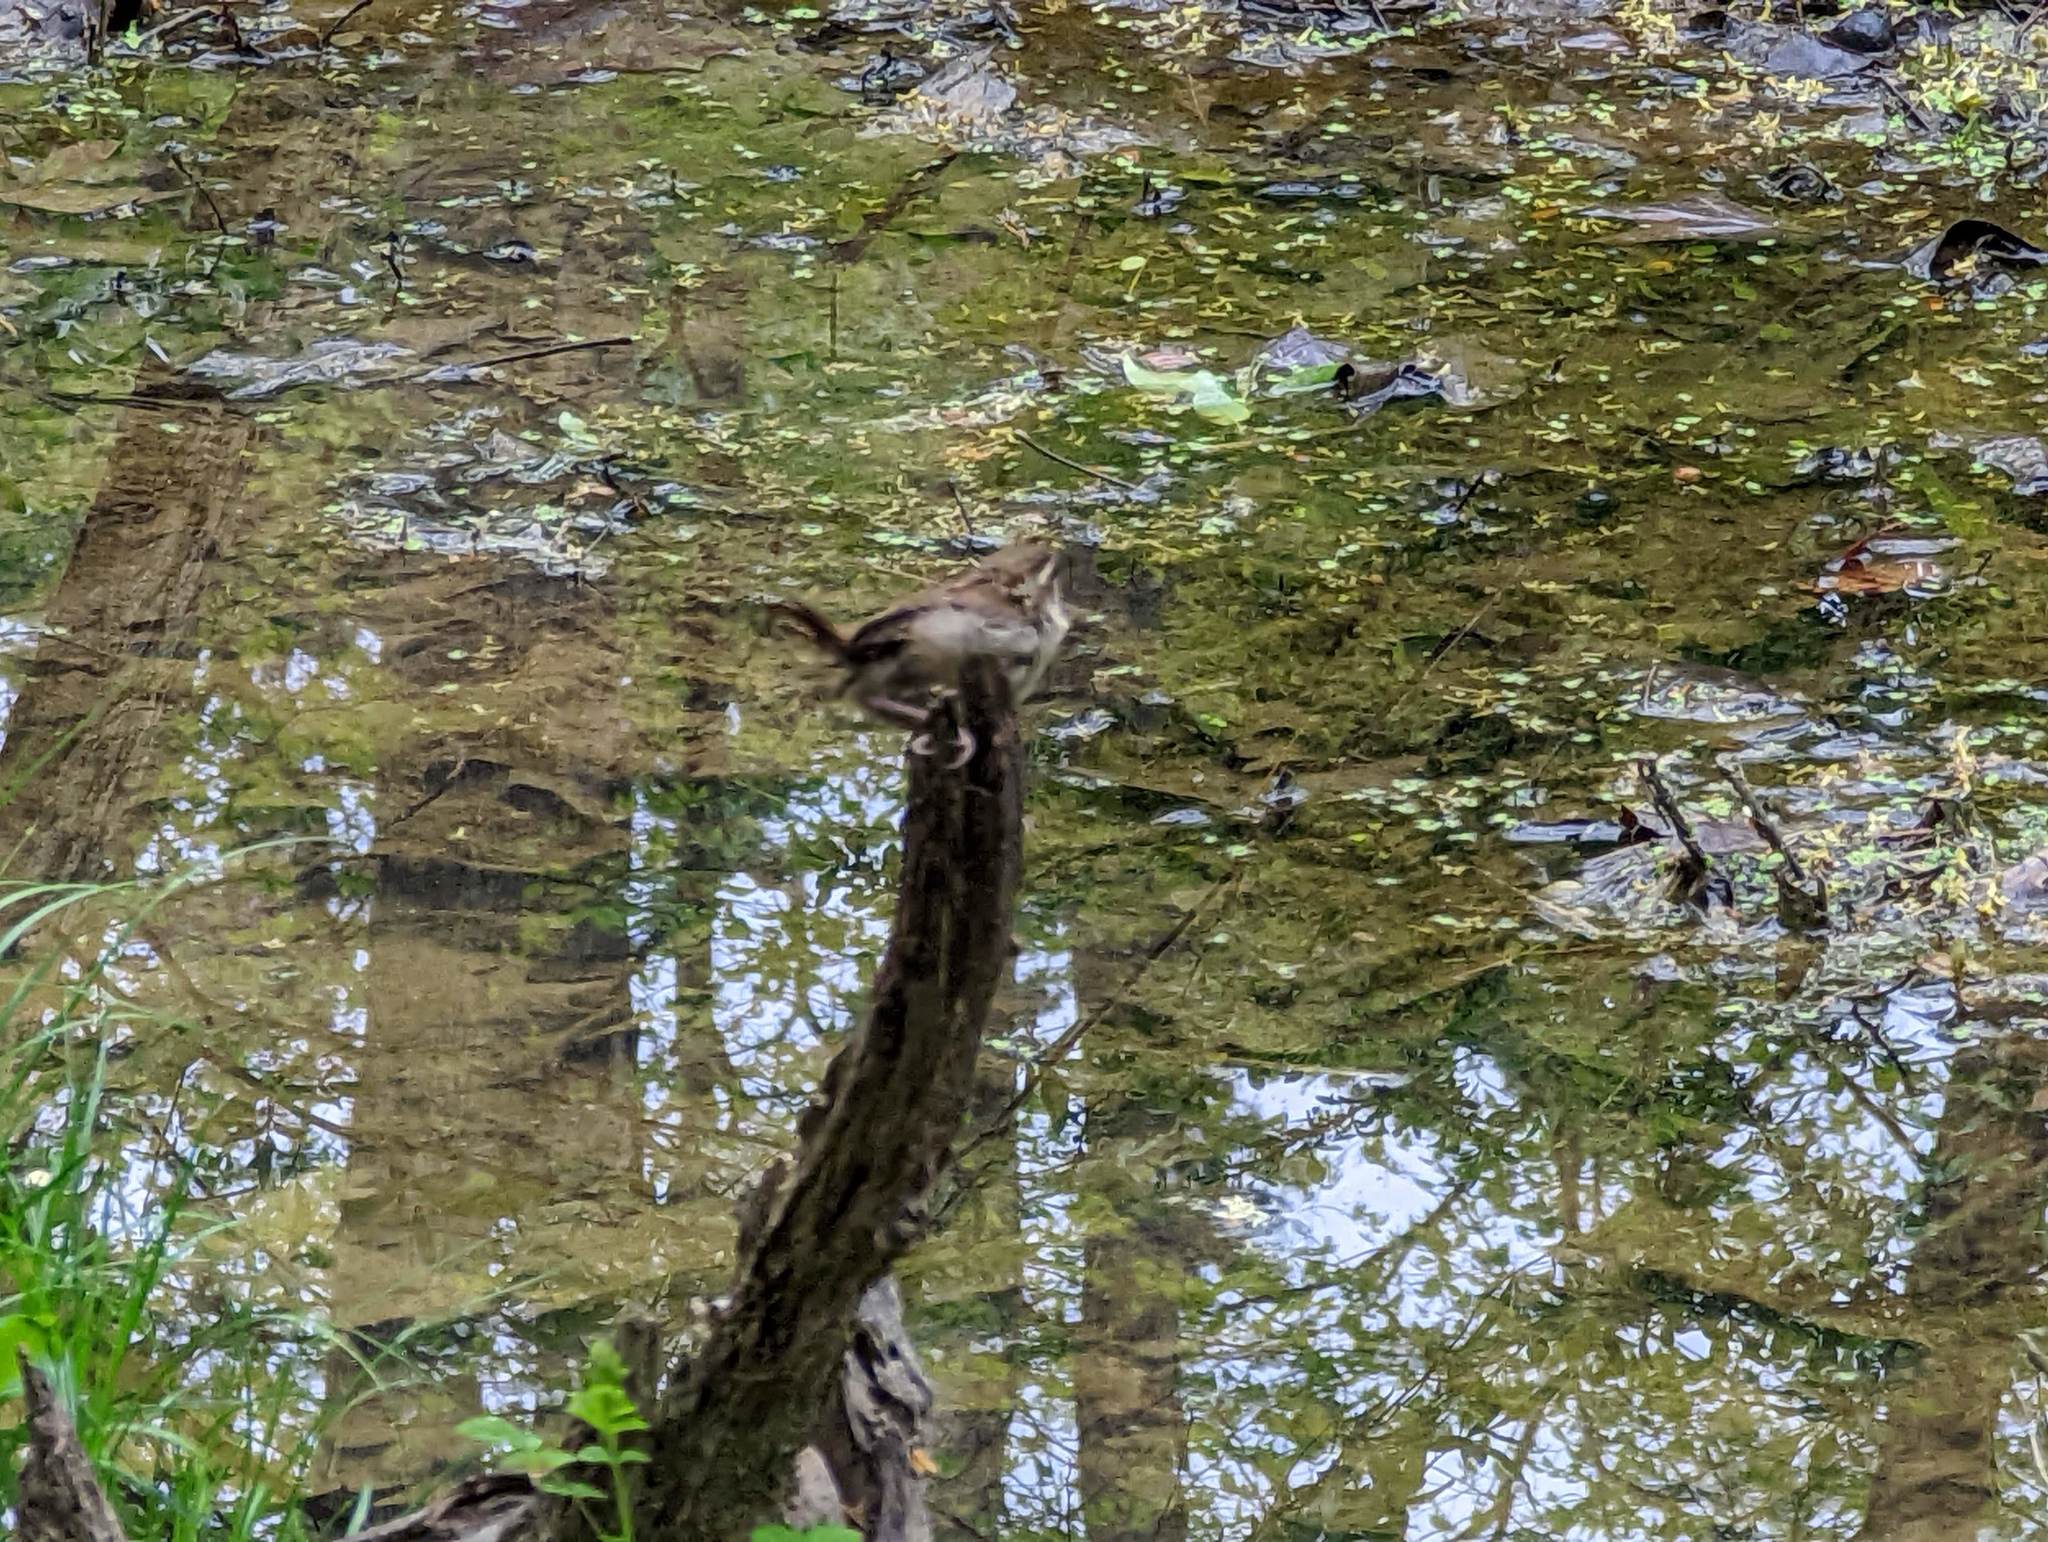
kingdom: Animalia
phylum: Chordata
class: Aves
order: Passeriformes
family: Troglodytidae
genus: Thryothorus
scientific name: Thryothorus ludovicianus
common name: Carolina wren
